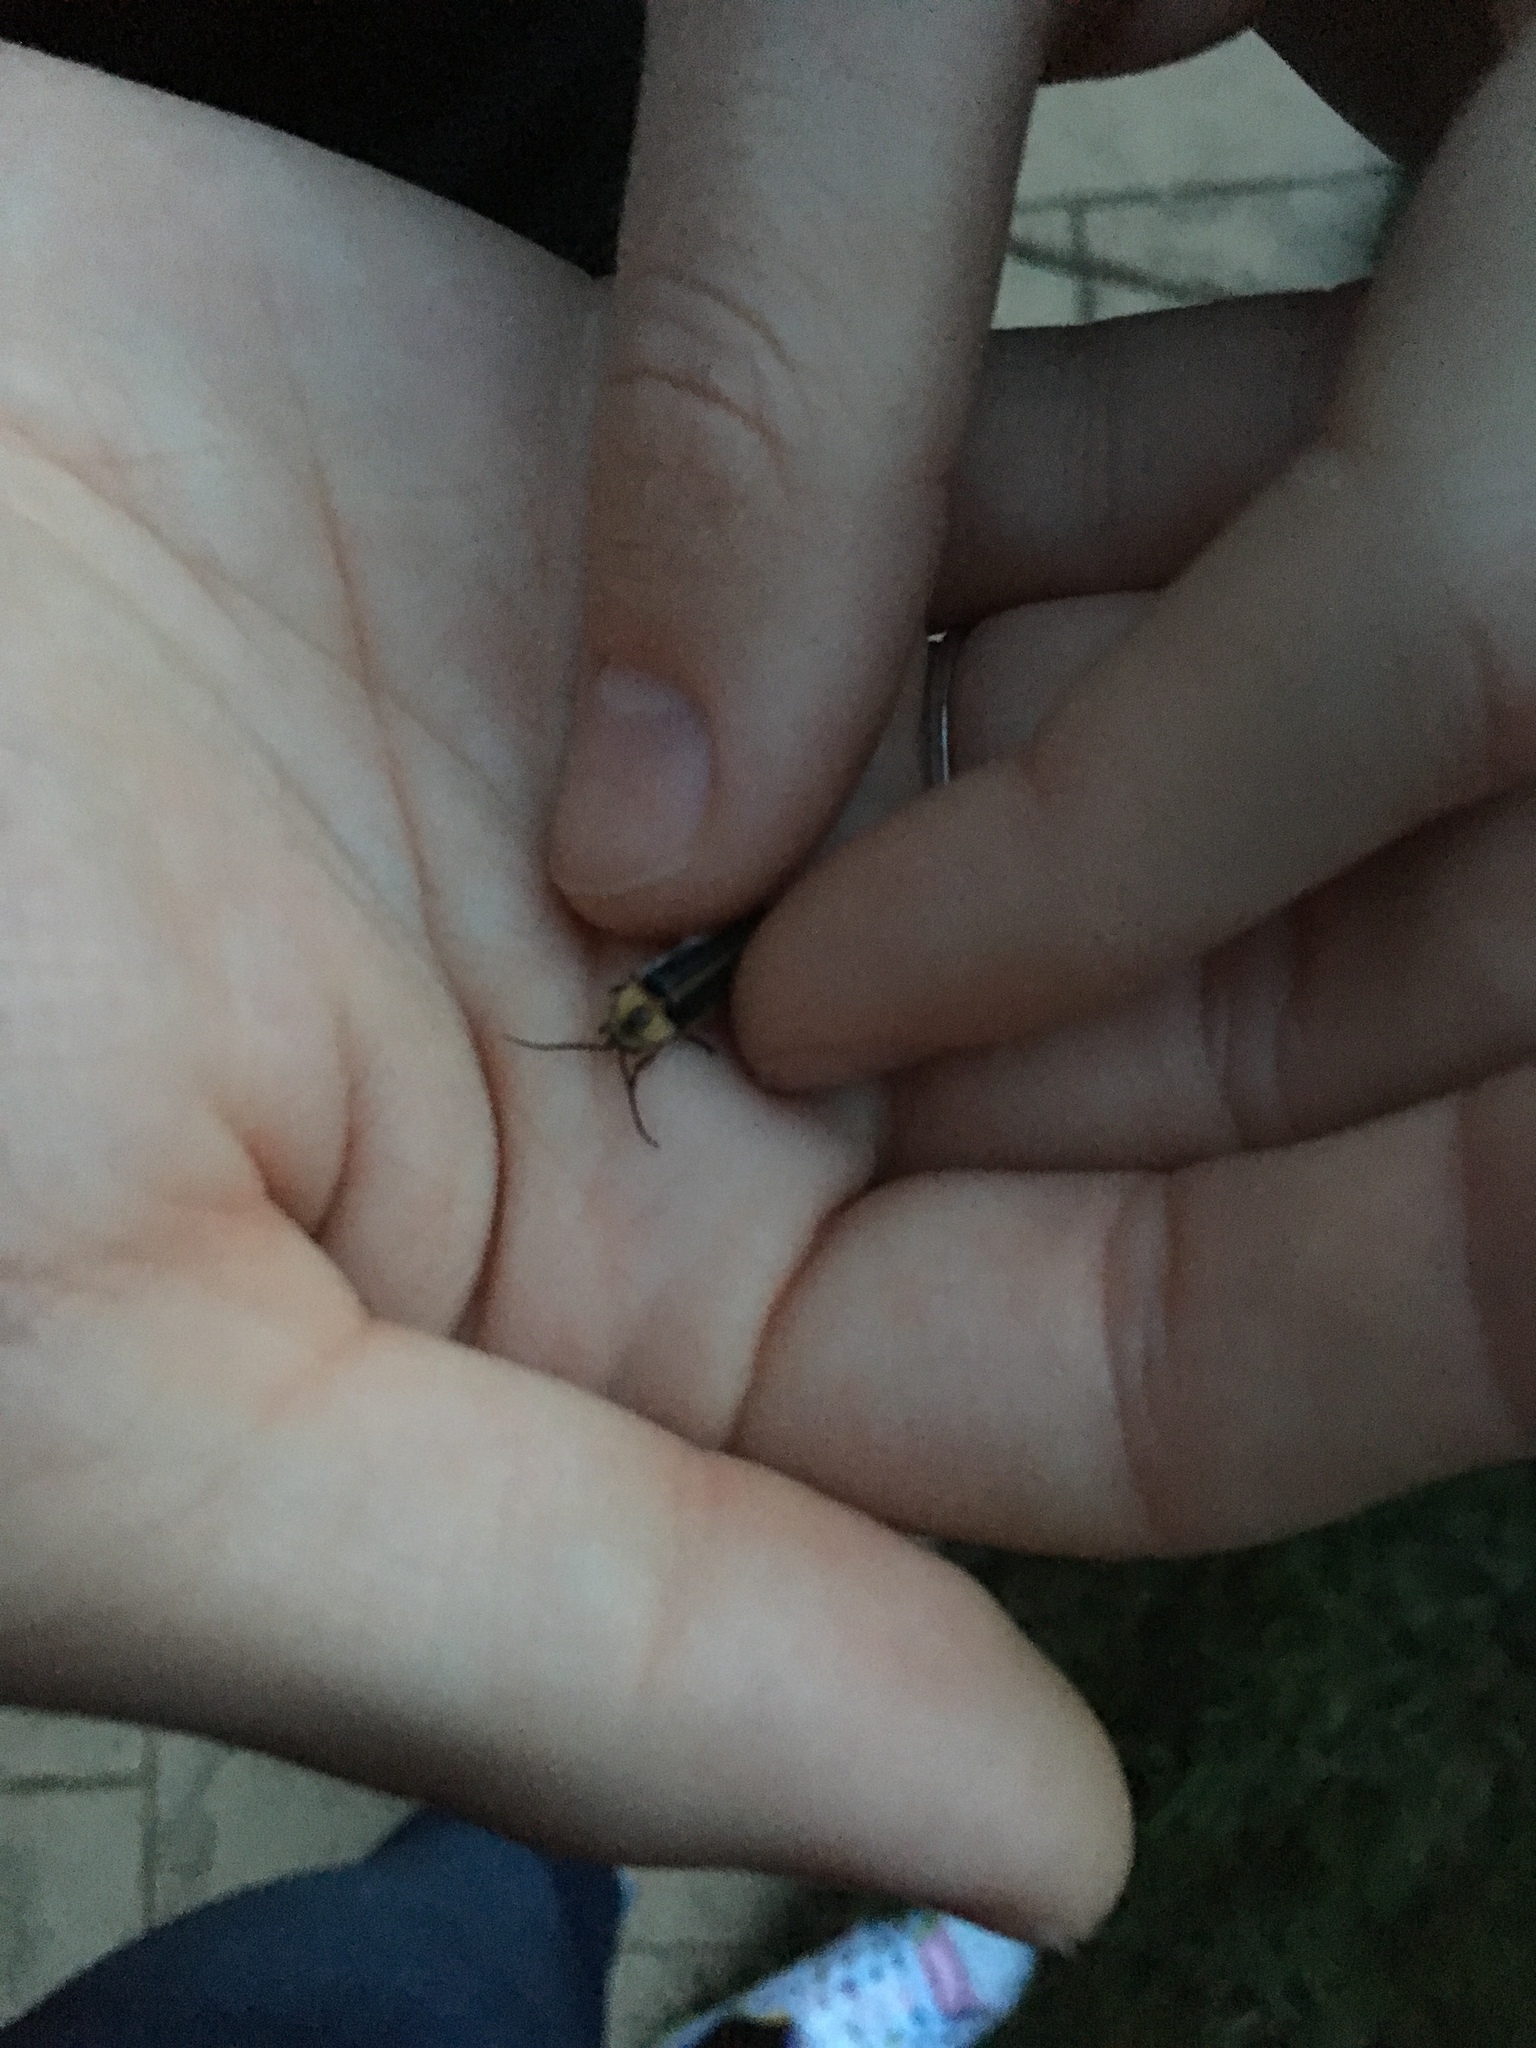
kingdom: Animalia
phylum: Arthropoda
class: Insecta
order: Coleoptera
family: Lampyridae
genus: Photinus
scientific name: Photinus pyralis
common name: Big dipper firefly
